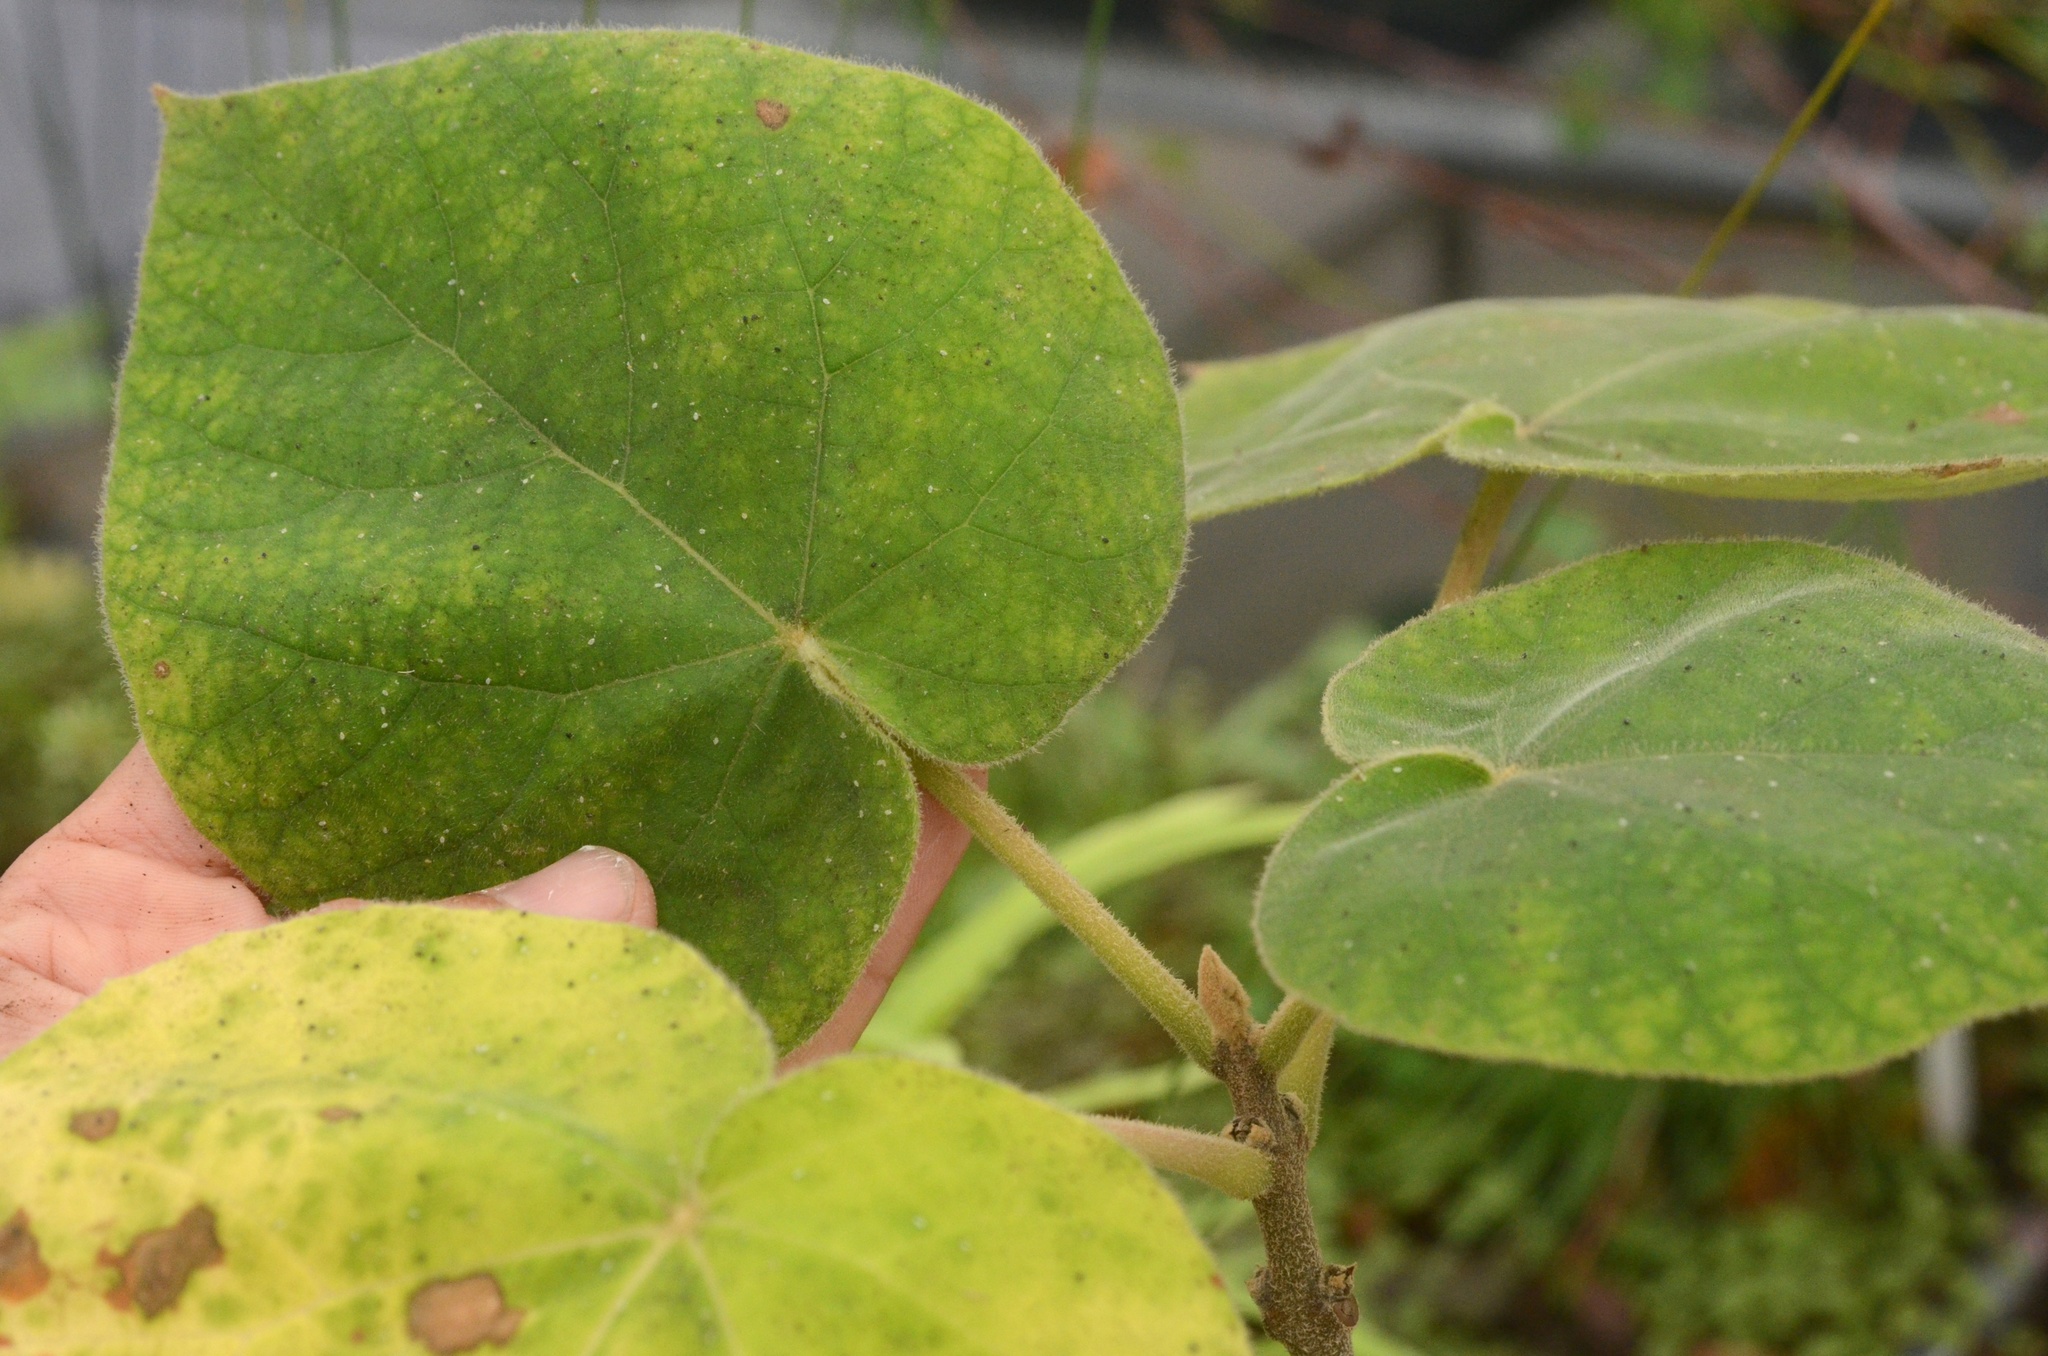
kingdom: Plantae
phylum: Tracheophyta
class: Magnoliopsida
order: Lamiales
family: Paulowniaceae
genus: Paulownia
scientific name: Paulownia tomentosa
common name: Foxglove-tree
